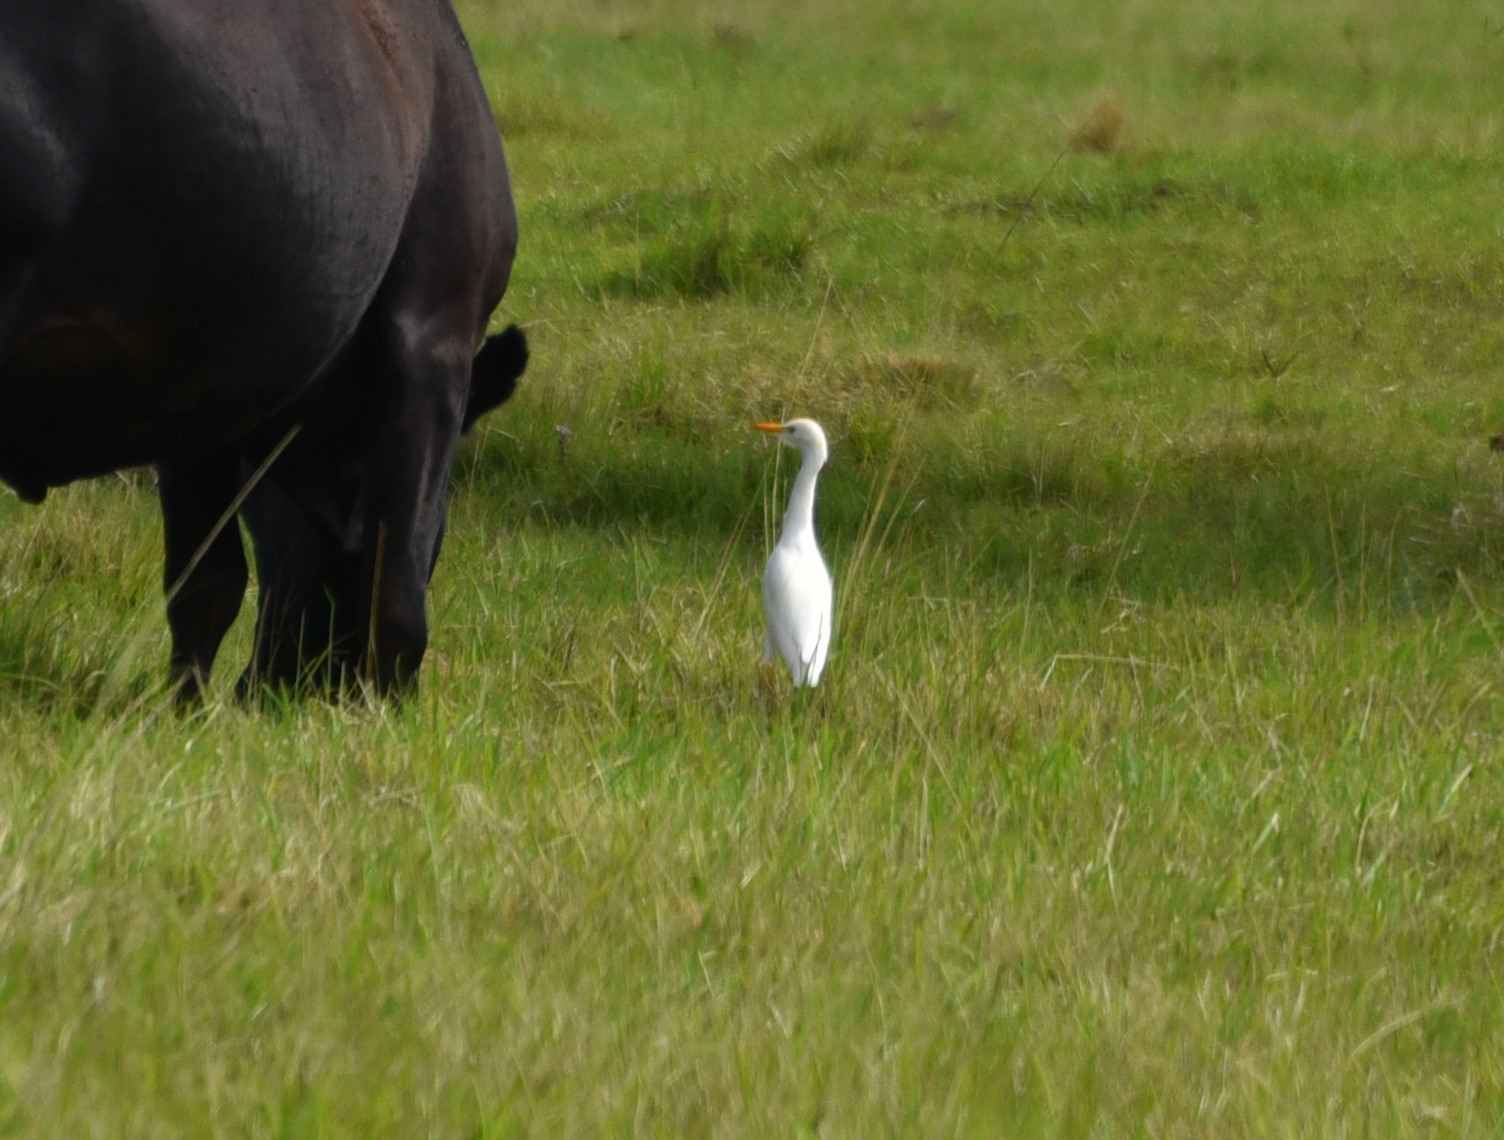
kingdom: Animalia
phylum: Chordata
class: Aves
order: Pelecaniformes
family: Ardeidae
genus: Bubulcus
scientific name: Bubulcus ibis
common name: Cattle egret
